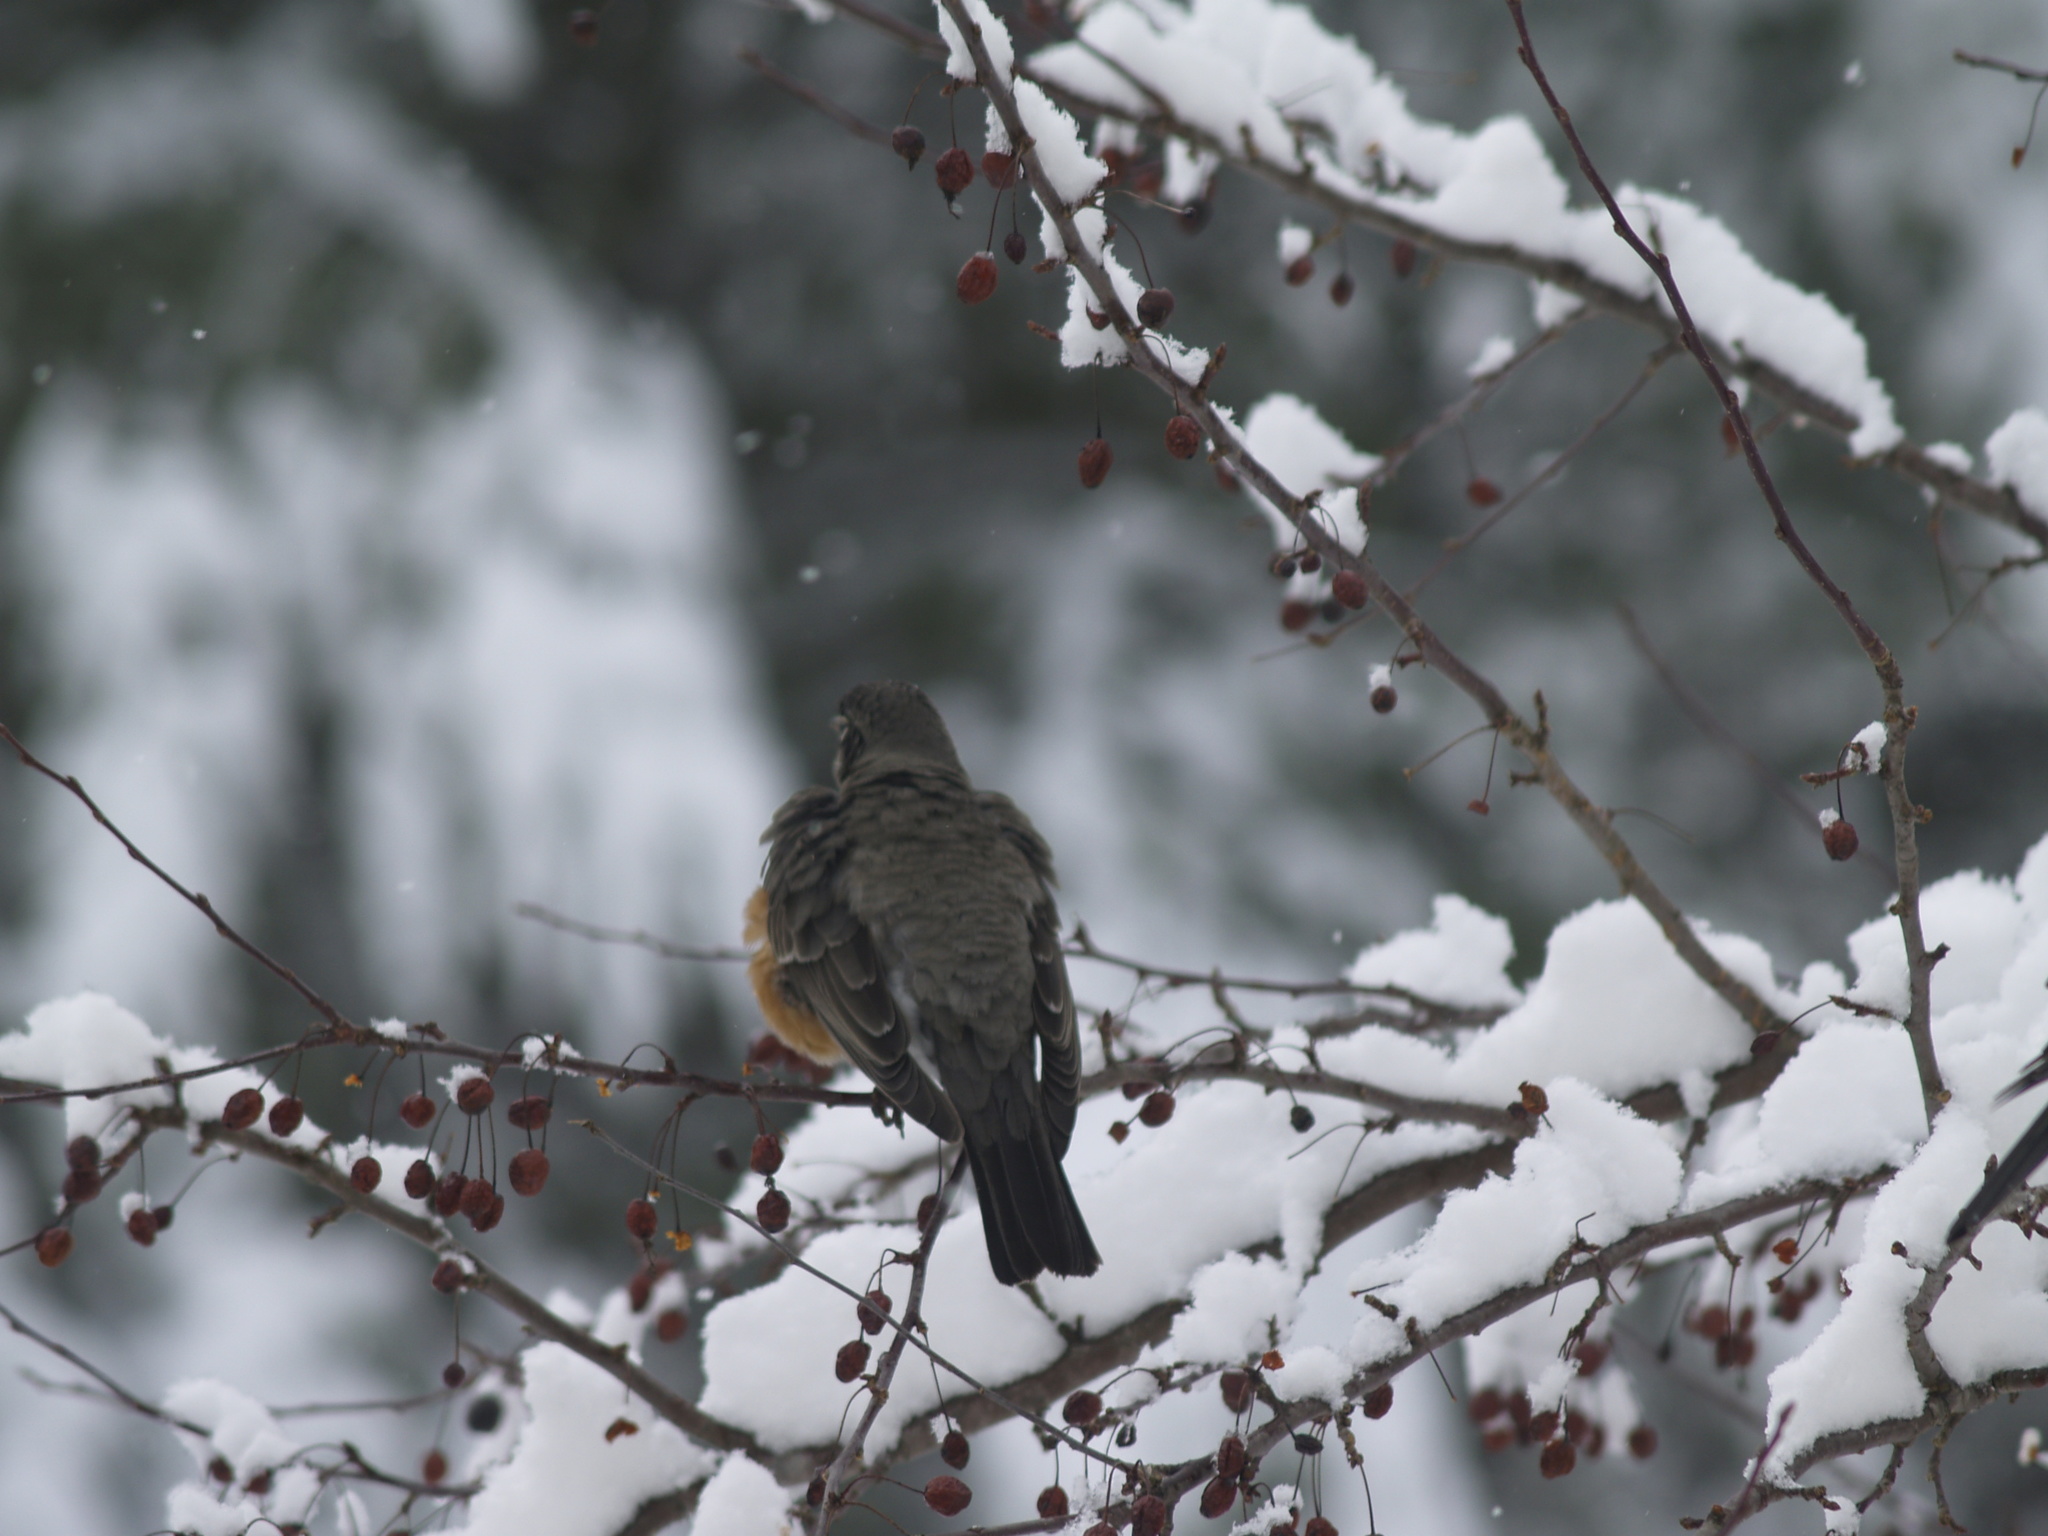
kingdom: Animalia
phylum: Chordata
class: Aves
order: Passeriformes
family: Turdidae
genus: Turdus
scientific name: Turdus migratorius
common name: American robin
